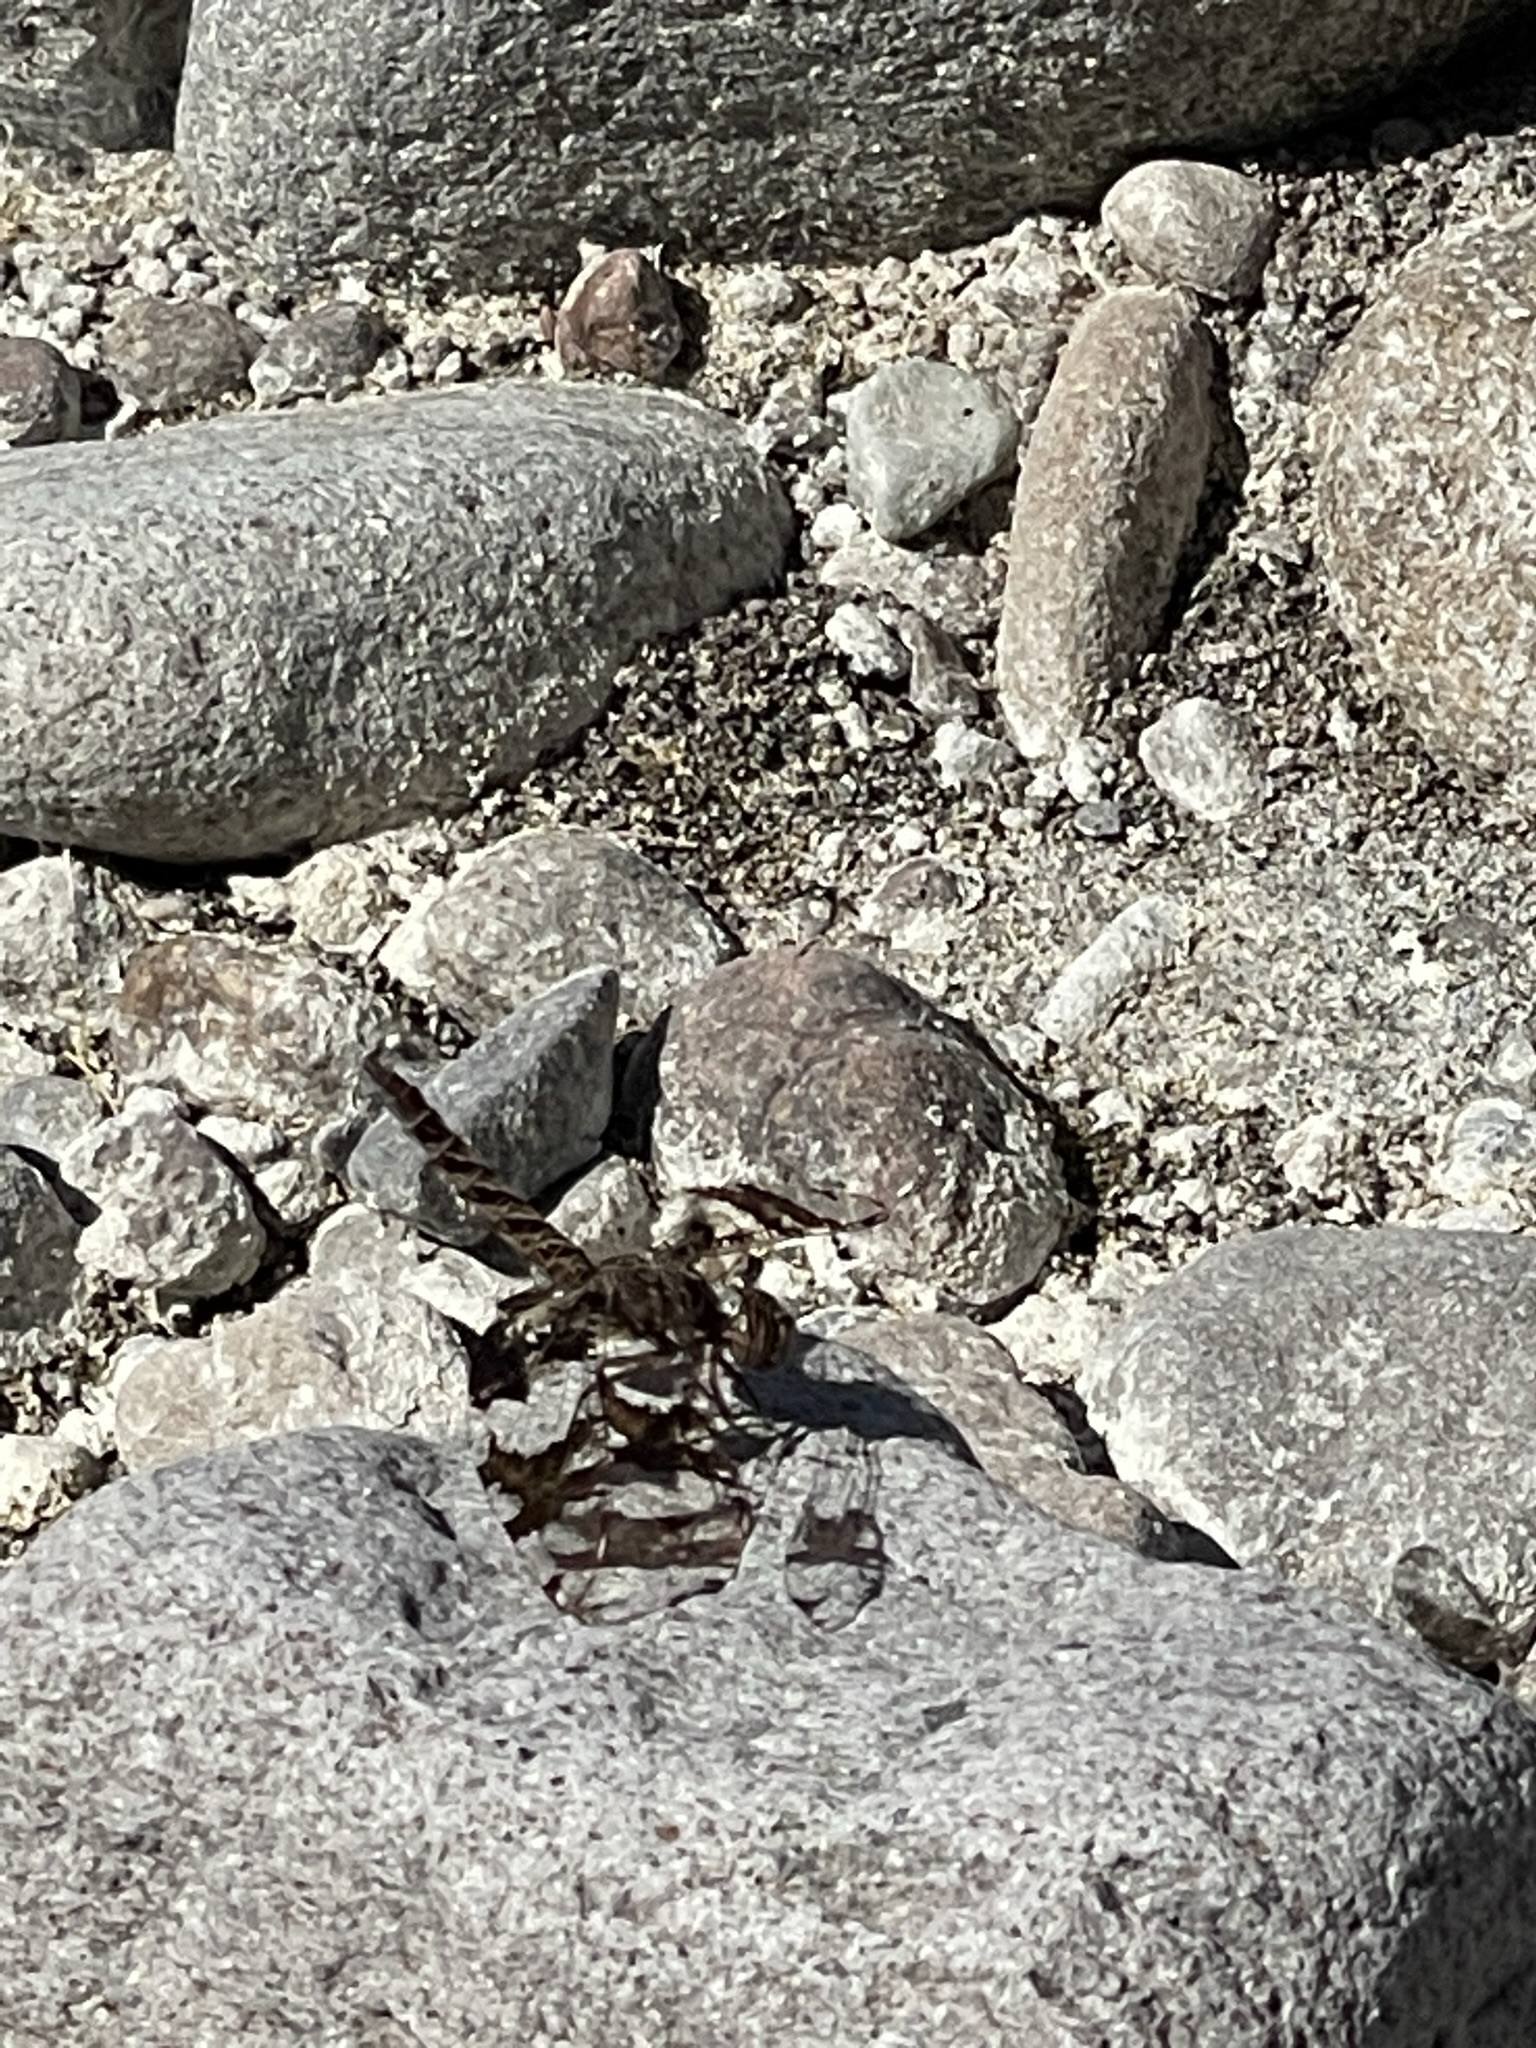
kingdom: Animalia
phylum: Arthropoda
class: Insecta
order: Odonata
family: Libellulidae
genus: Pseudoleon
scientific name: Pseudoleon superbus
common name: Filigree skimmer
